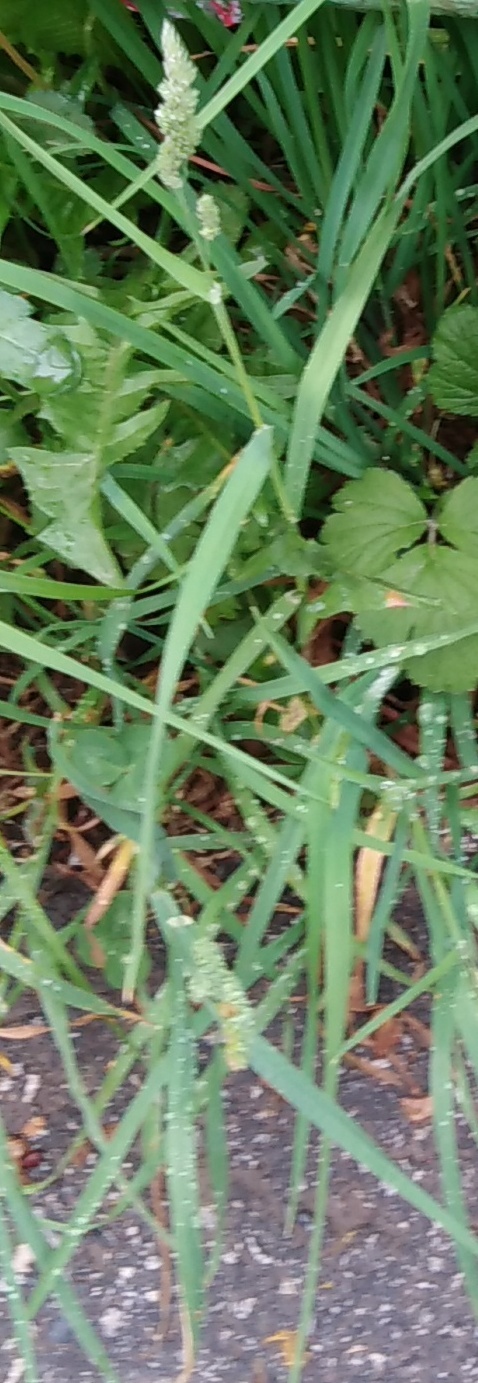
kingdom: Plantae
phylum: Tracheophyta
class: Liliopsida
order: Poales
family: Poaceae
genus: Dactylis
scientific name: Dactylis glomerata
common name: Orchardgrass
